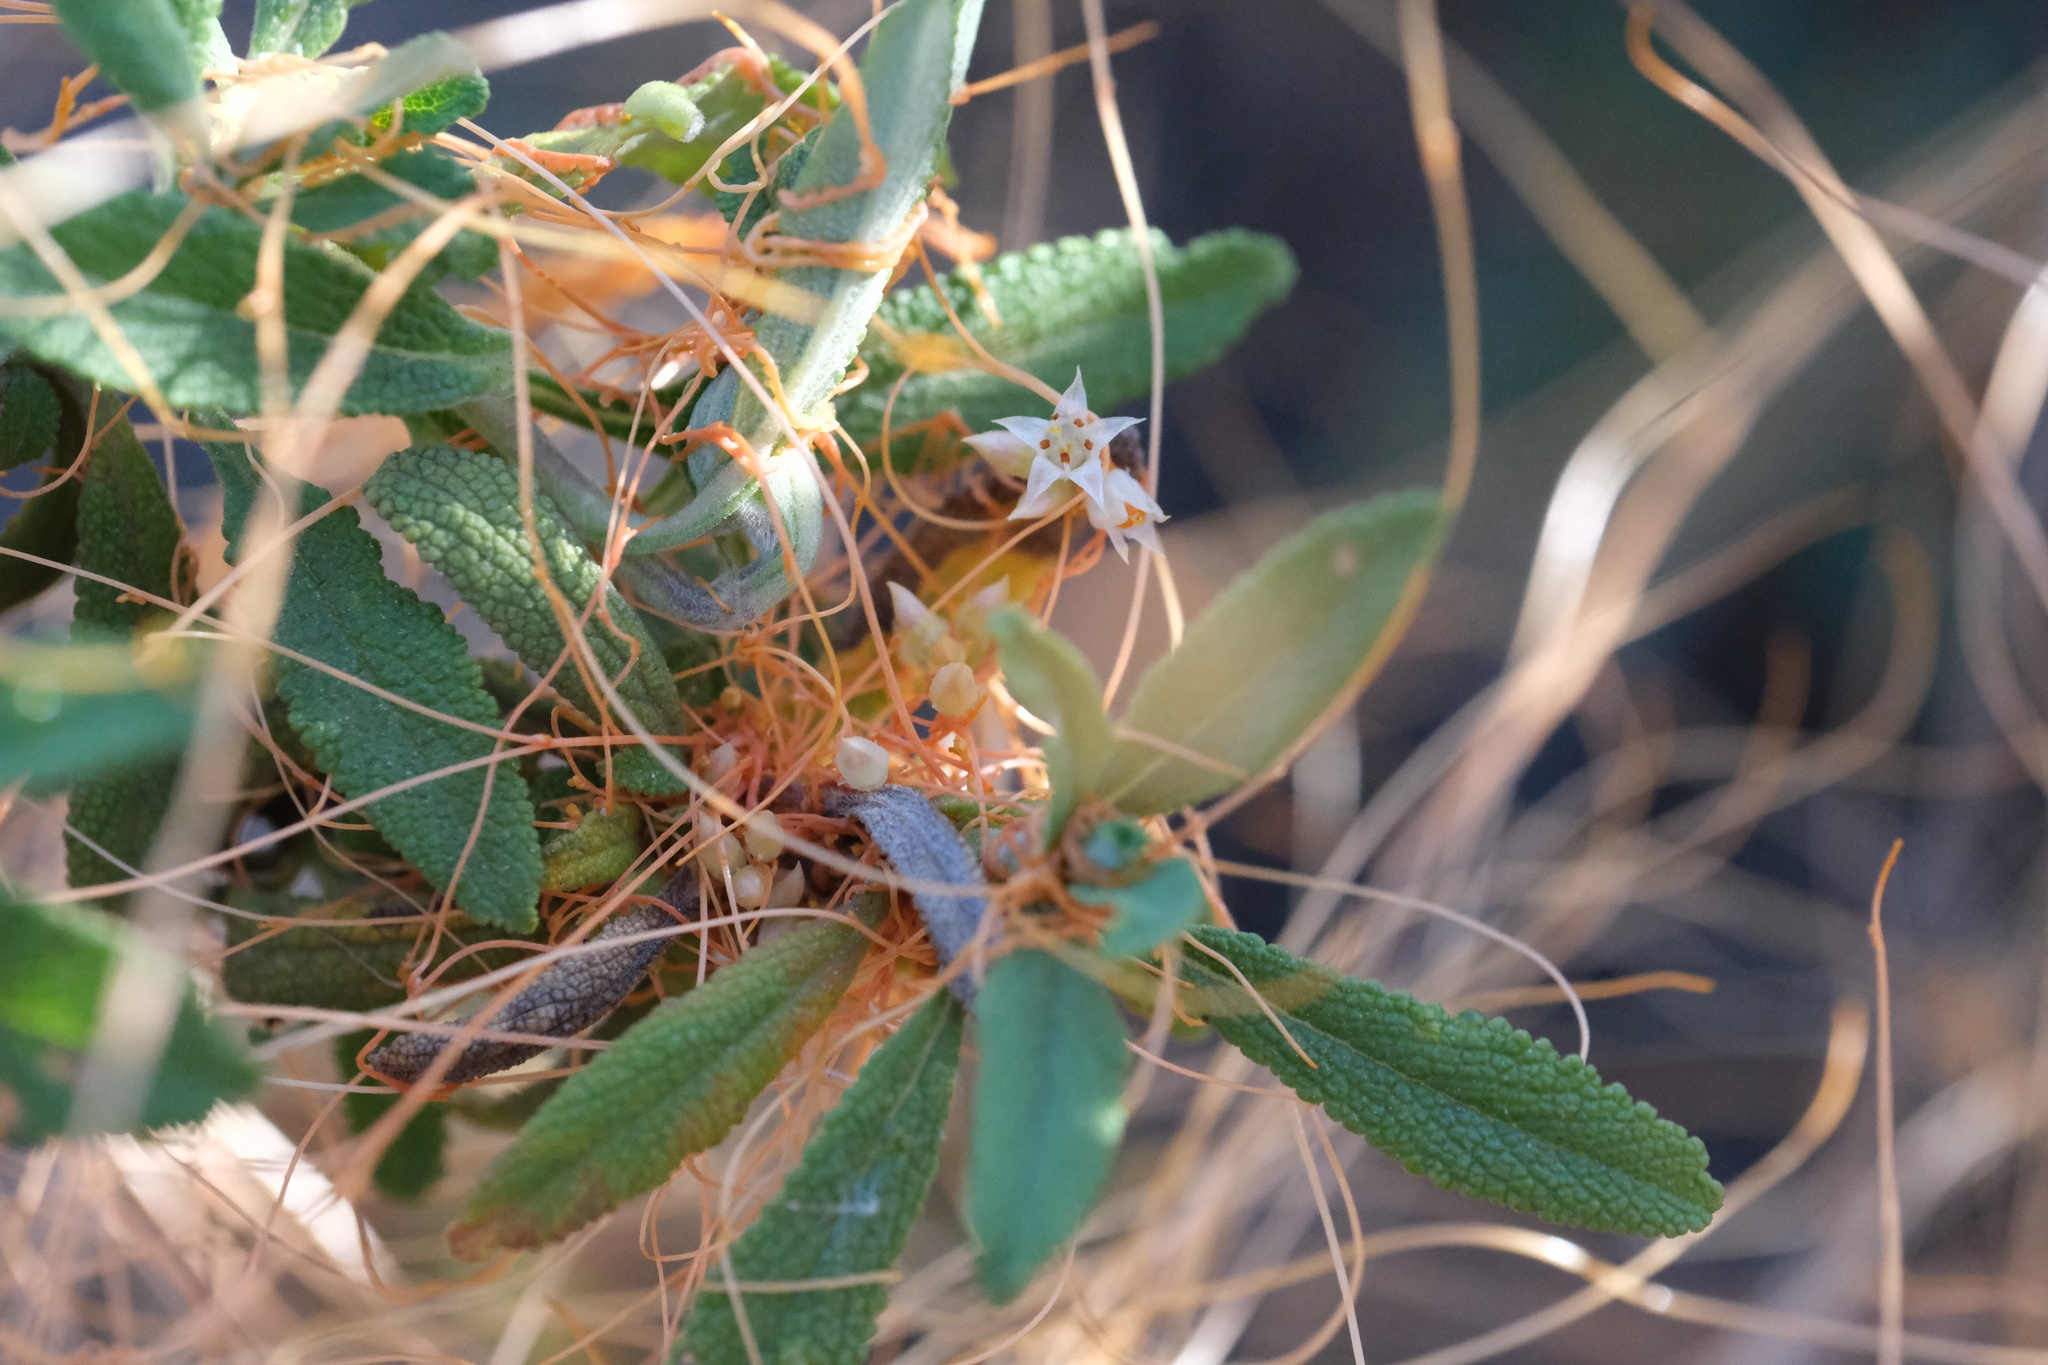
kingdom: Plantae
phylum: Tracheophyta
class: Magnoliopsida
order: Solanales
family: Convolvulaceae
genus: Cuscuta
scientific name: Cuscuta californica
